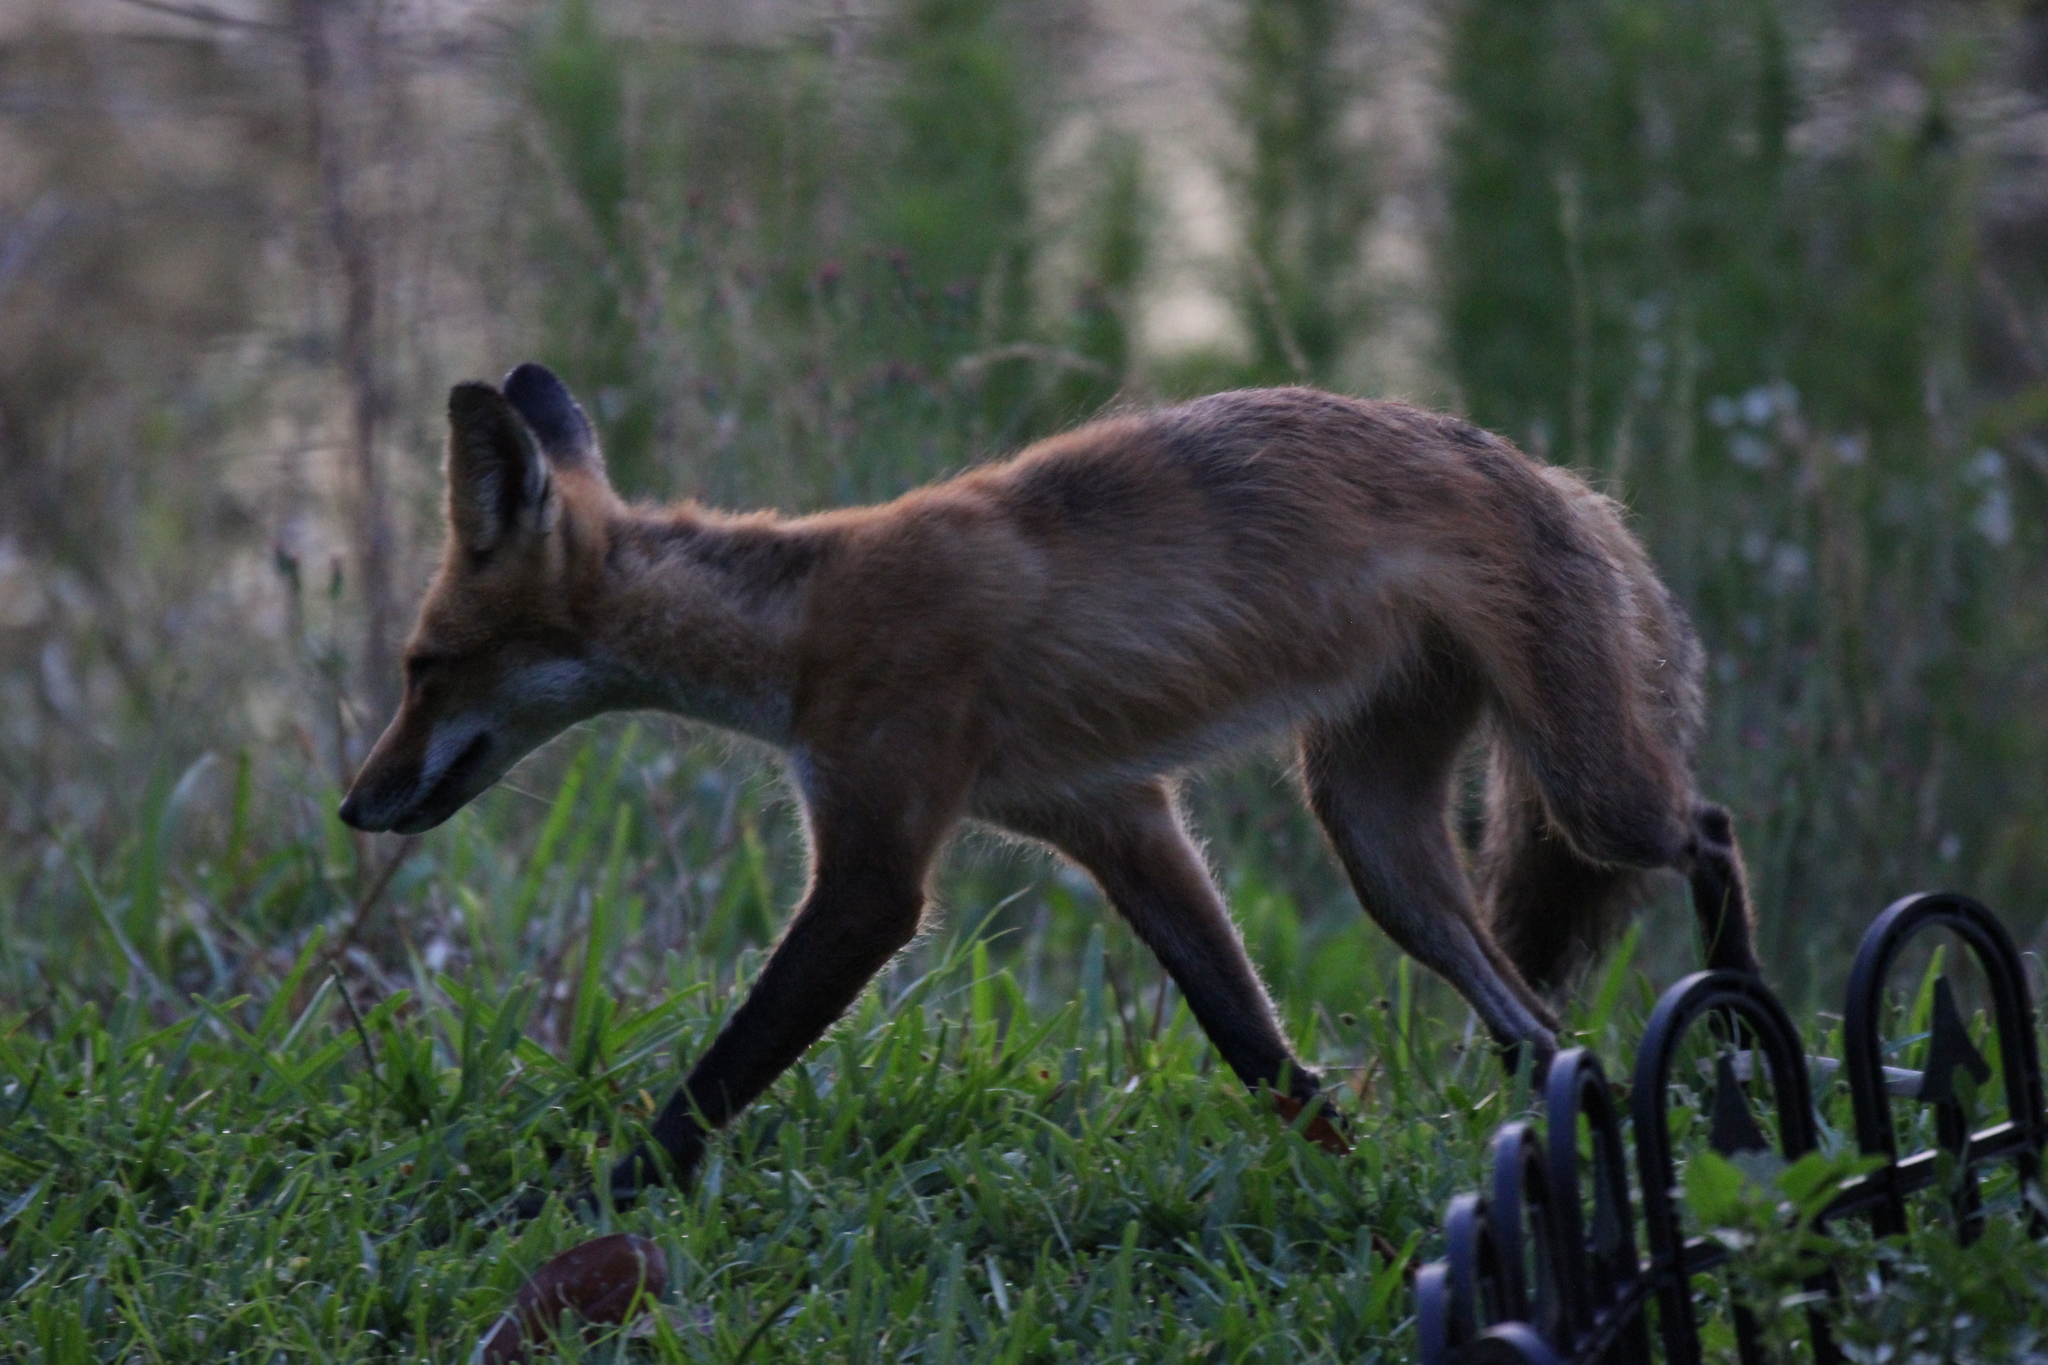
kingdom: Animalia
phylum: Chordata
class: Mammalia
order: Carnivora
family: Canidae
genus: Vulpes
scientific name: Vulpes vulpes
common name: Red fox
